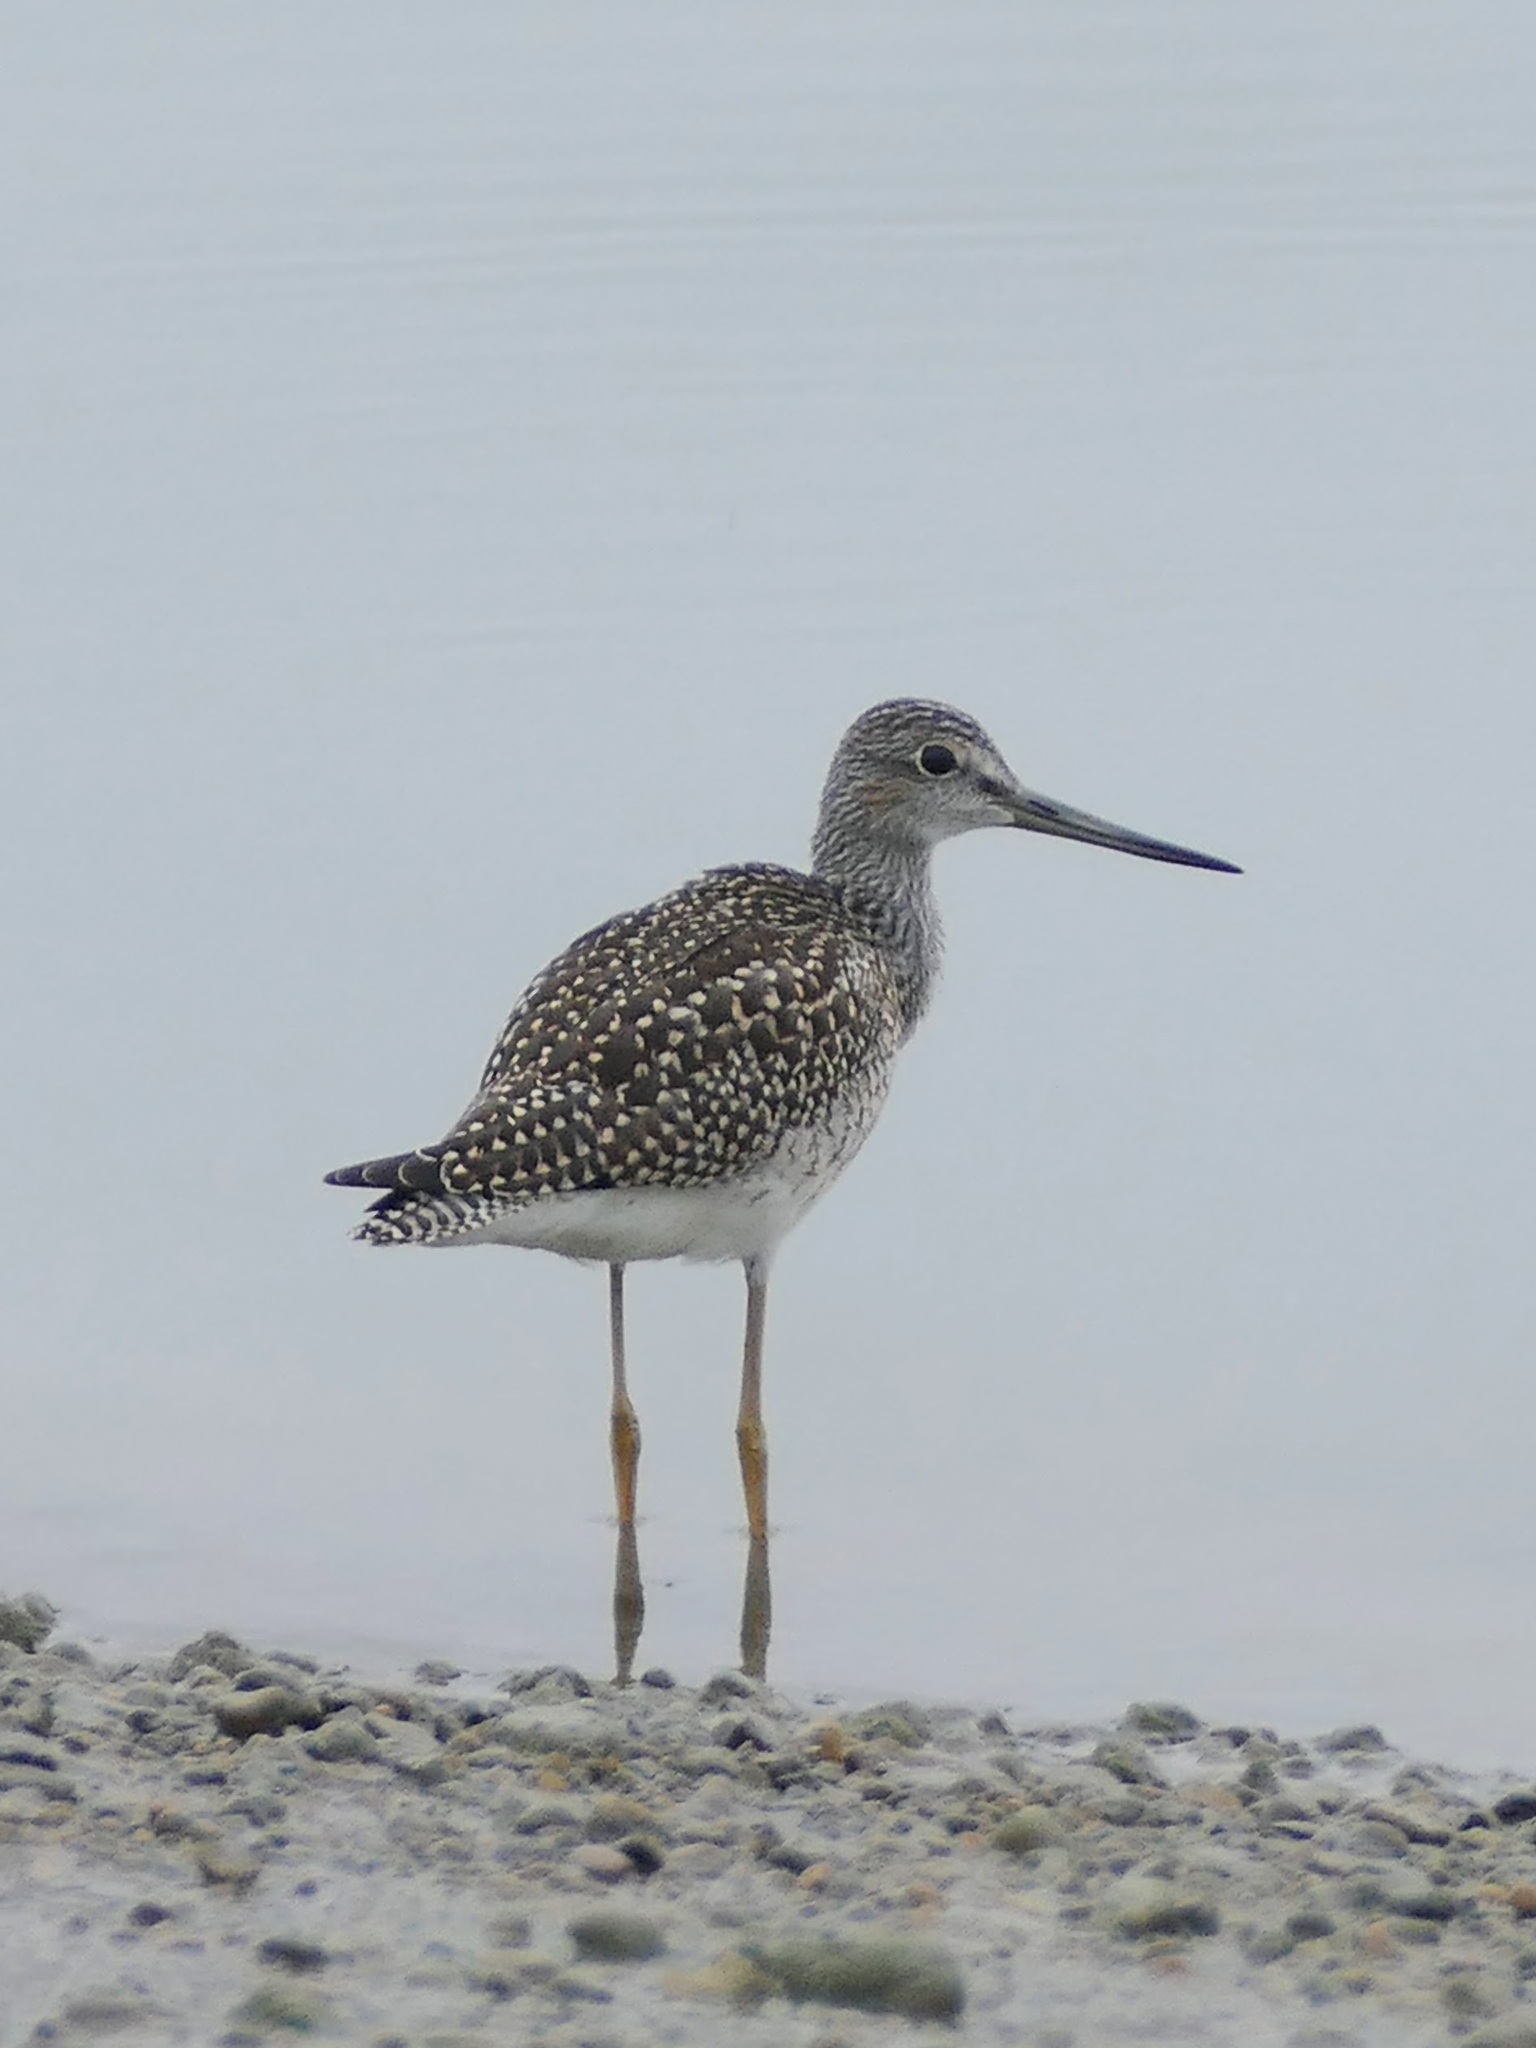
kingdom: Animalia
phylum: Chordata
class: Aves
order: Charadriiformes
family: Scolopacidae
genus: Tringa
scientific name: Tringa melanoleuca
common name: Greater yellowlegs
